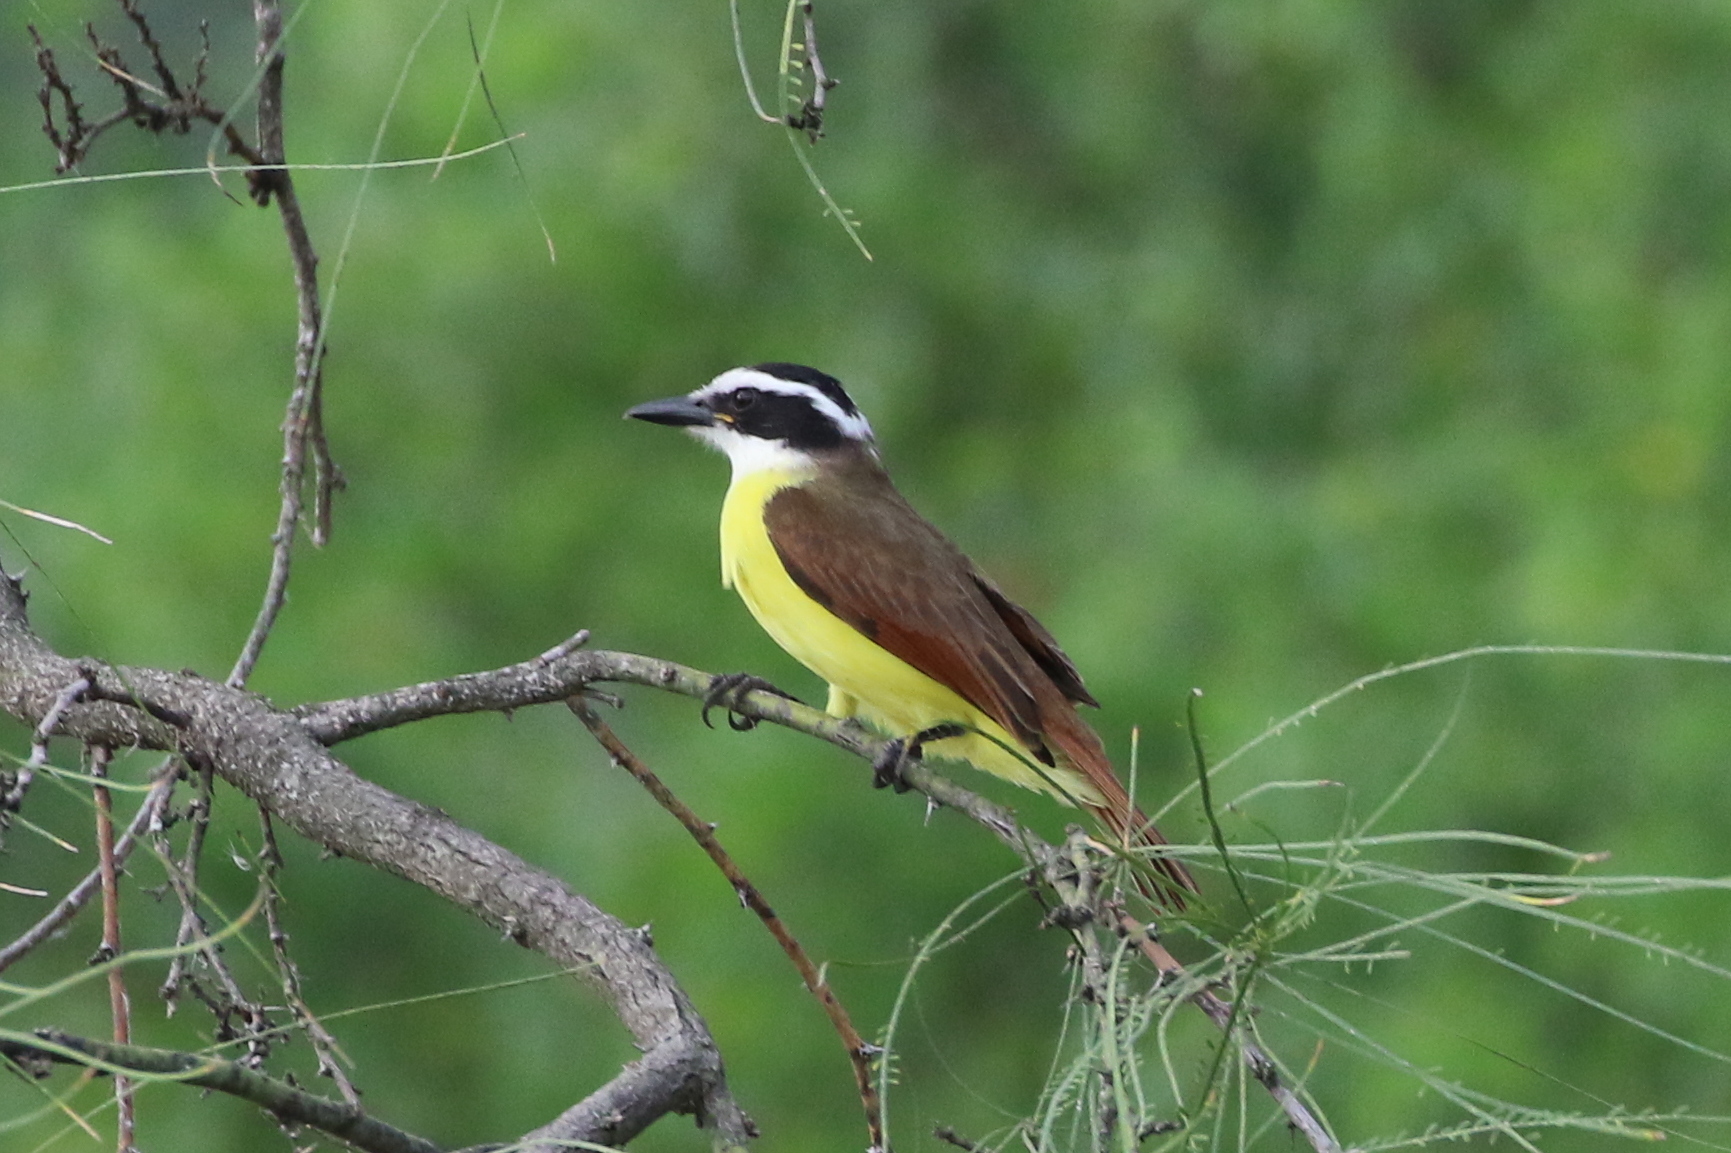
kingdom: Animalia
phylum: Chordata
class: Aves
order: Passeriformes
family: Tyrannidae
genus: Pitangus
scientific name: Pitangus sulphuratus
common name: Great kiskadee
